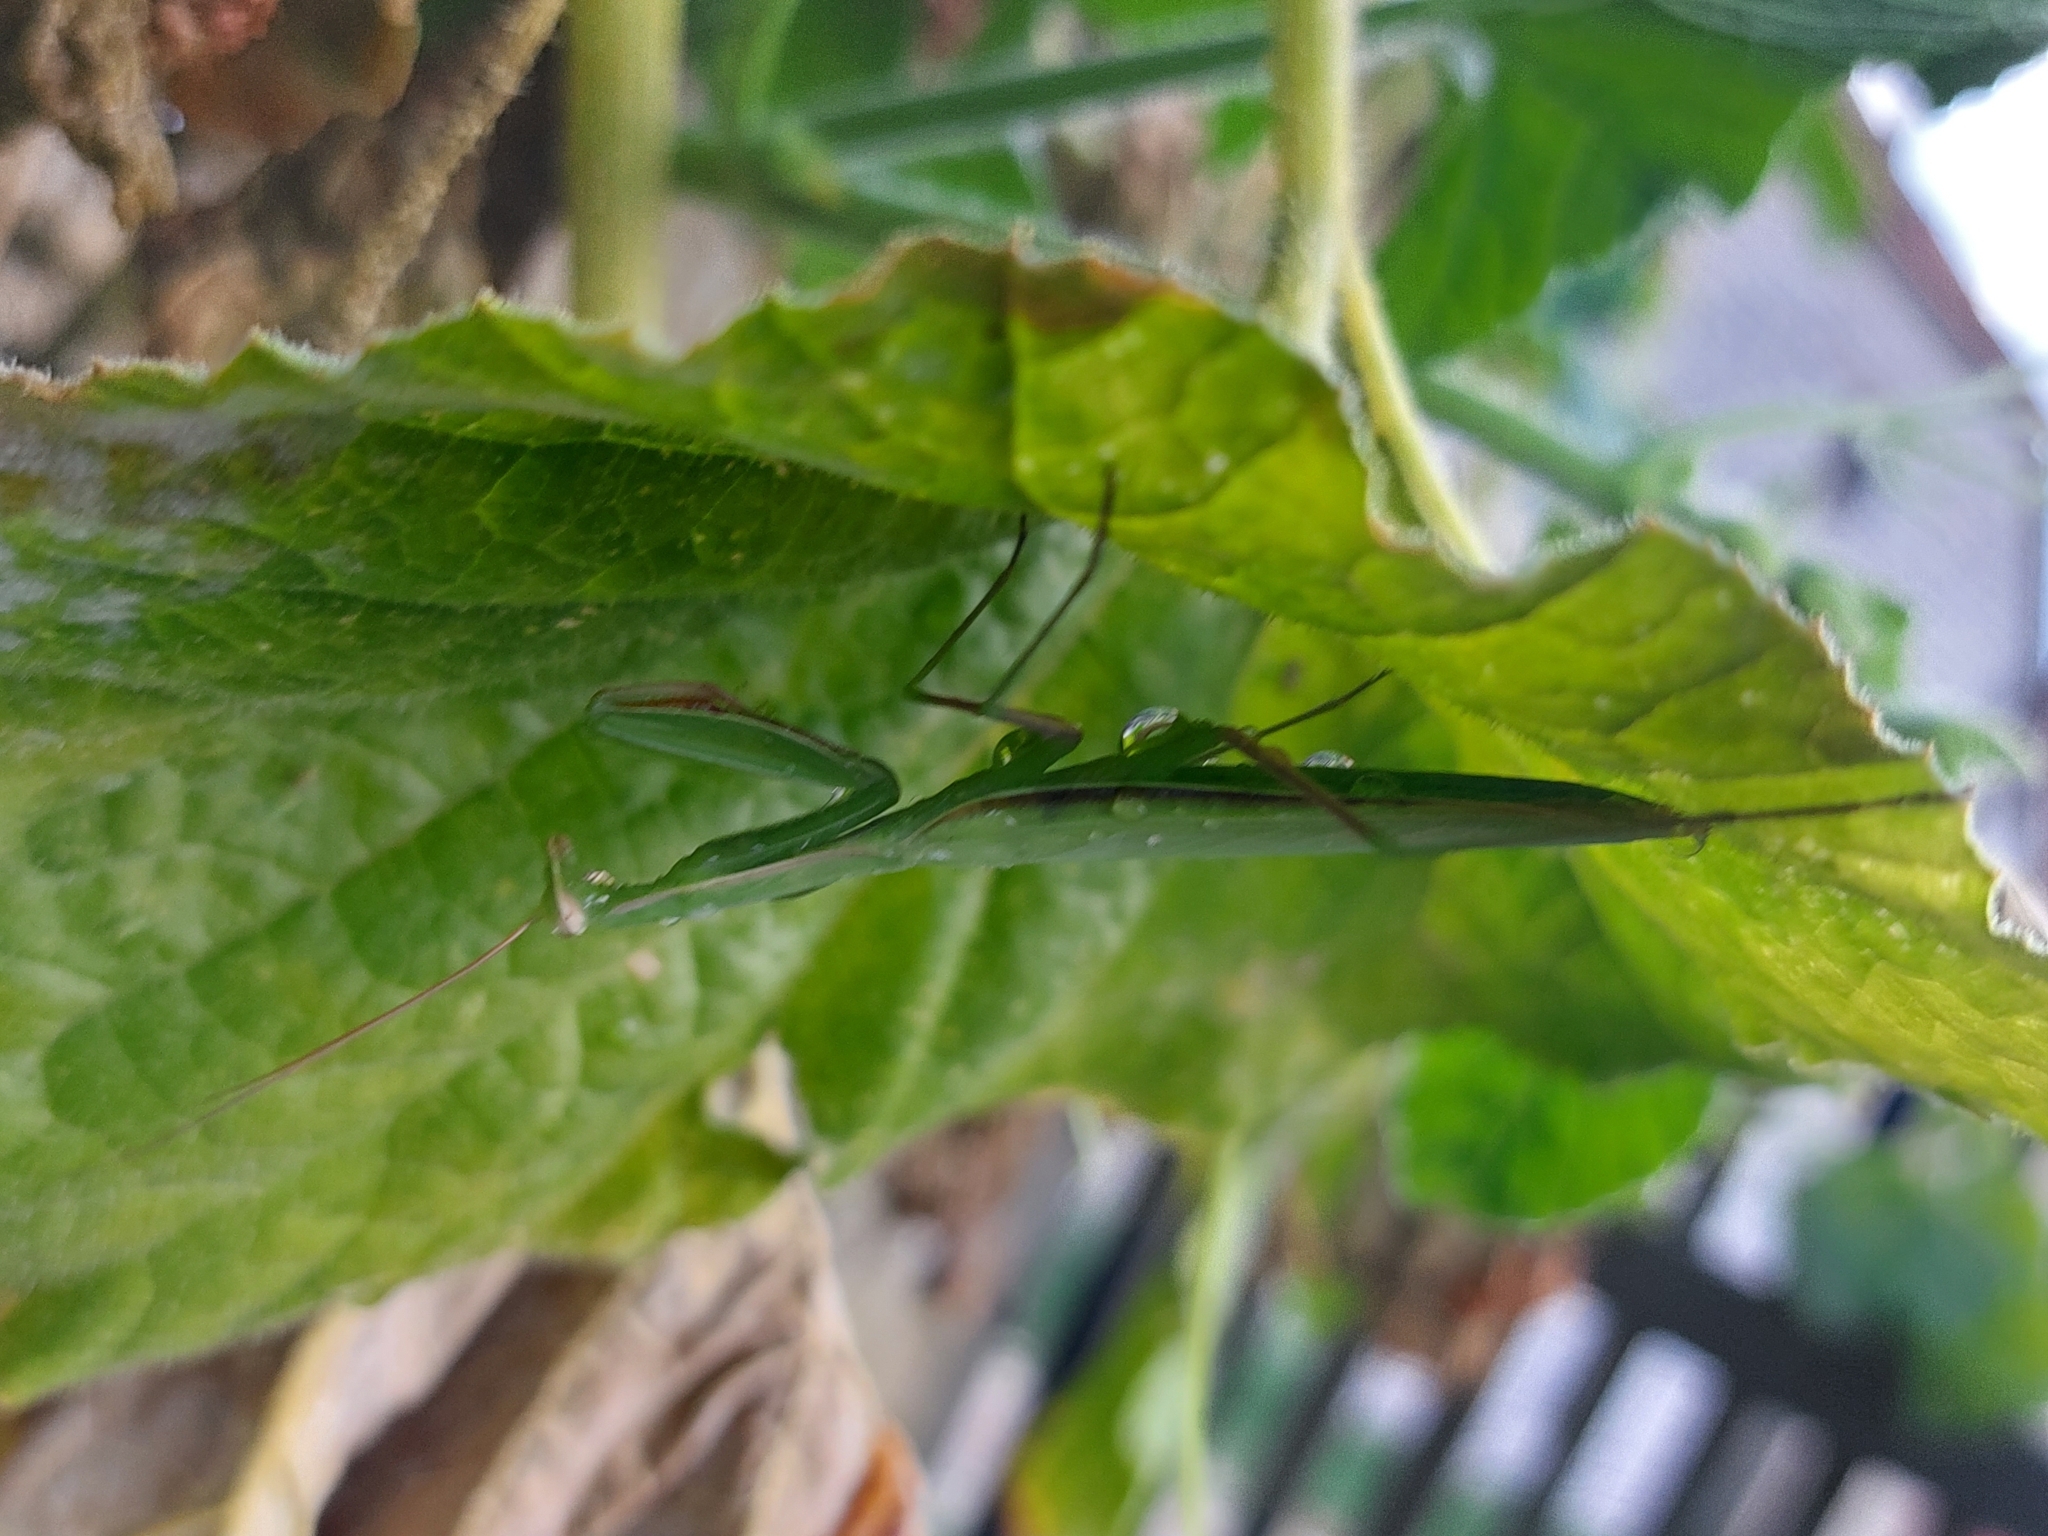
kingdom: Animalia
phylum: Arthropoda
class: Insecta
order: Mantodea
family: Mantidae
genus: Mantis
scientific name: Mantis religiosa
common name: Praying mantis
